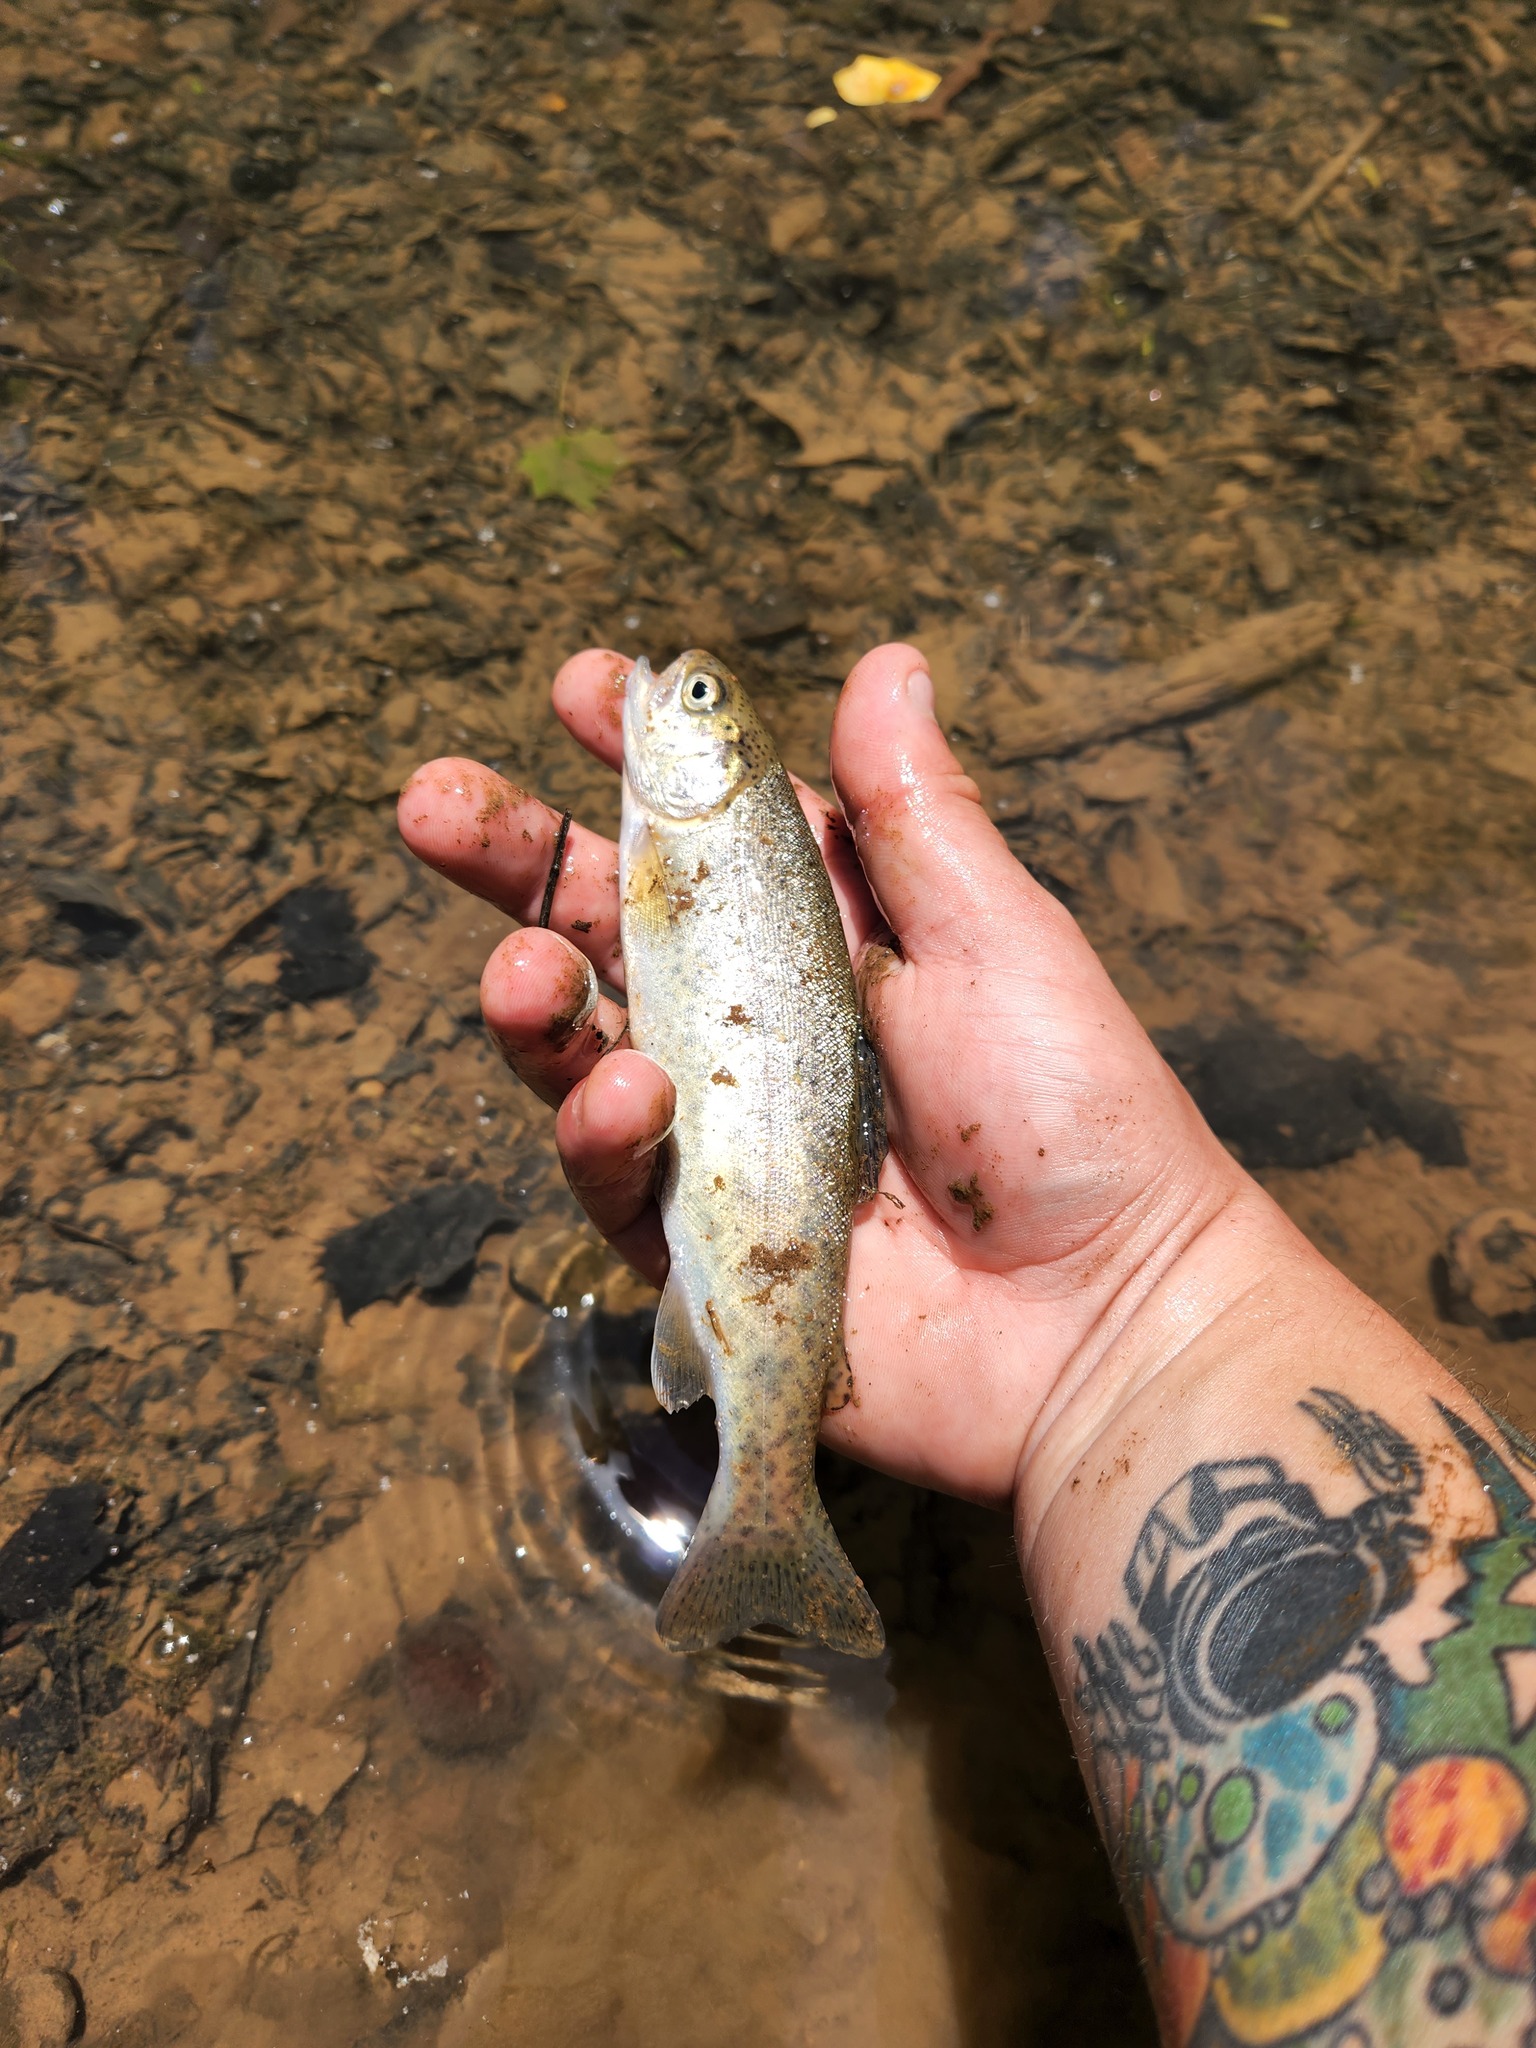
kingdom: Animalia
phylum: Chordata
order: Salmoniformes
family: Salmonidae
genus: Oncorhynchus
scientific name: Oncorhynchus mykiss
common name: Rainbow trout
